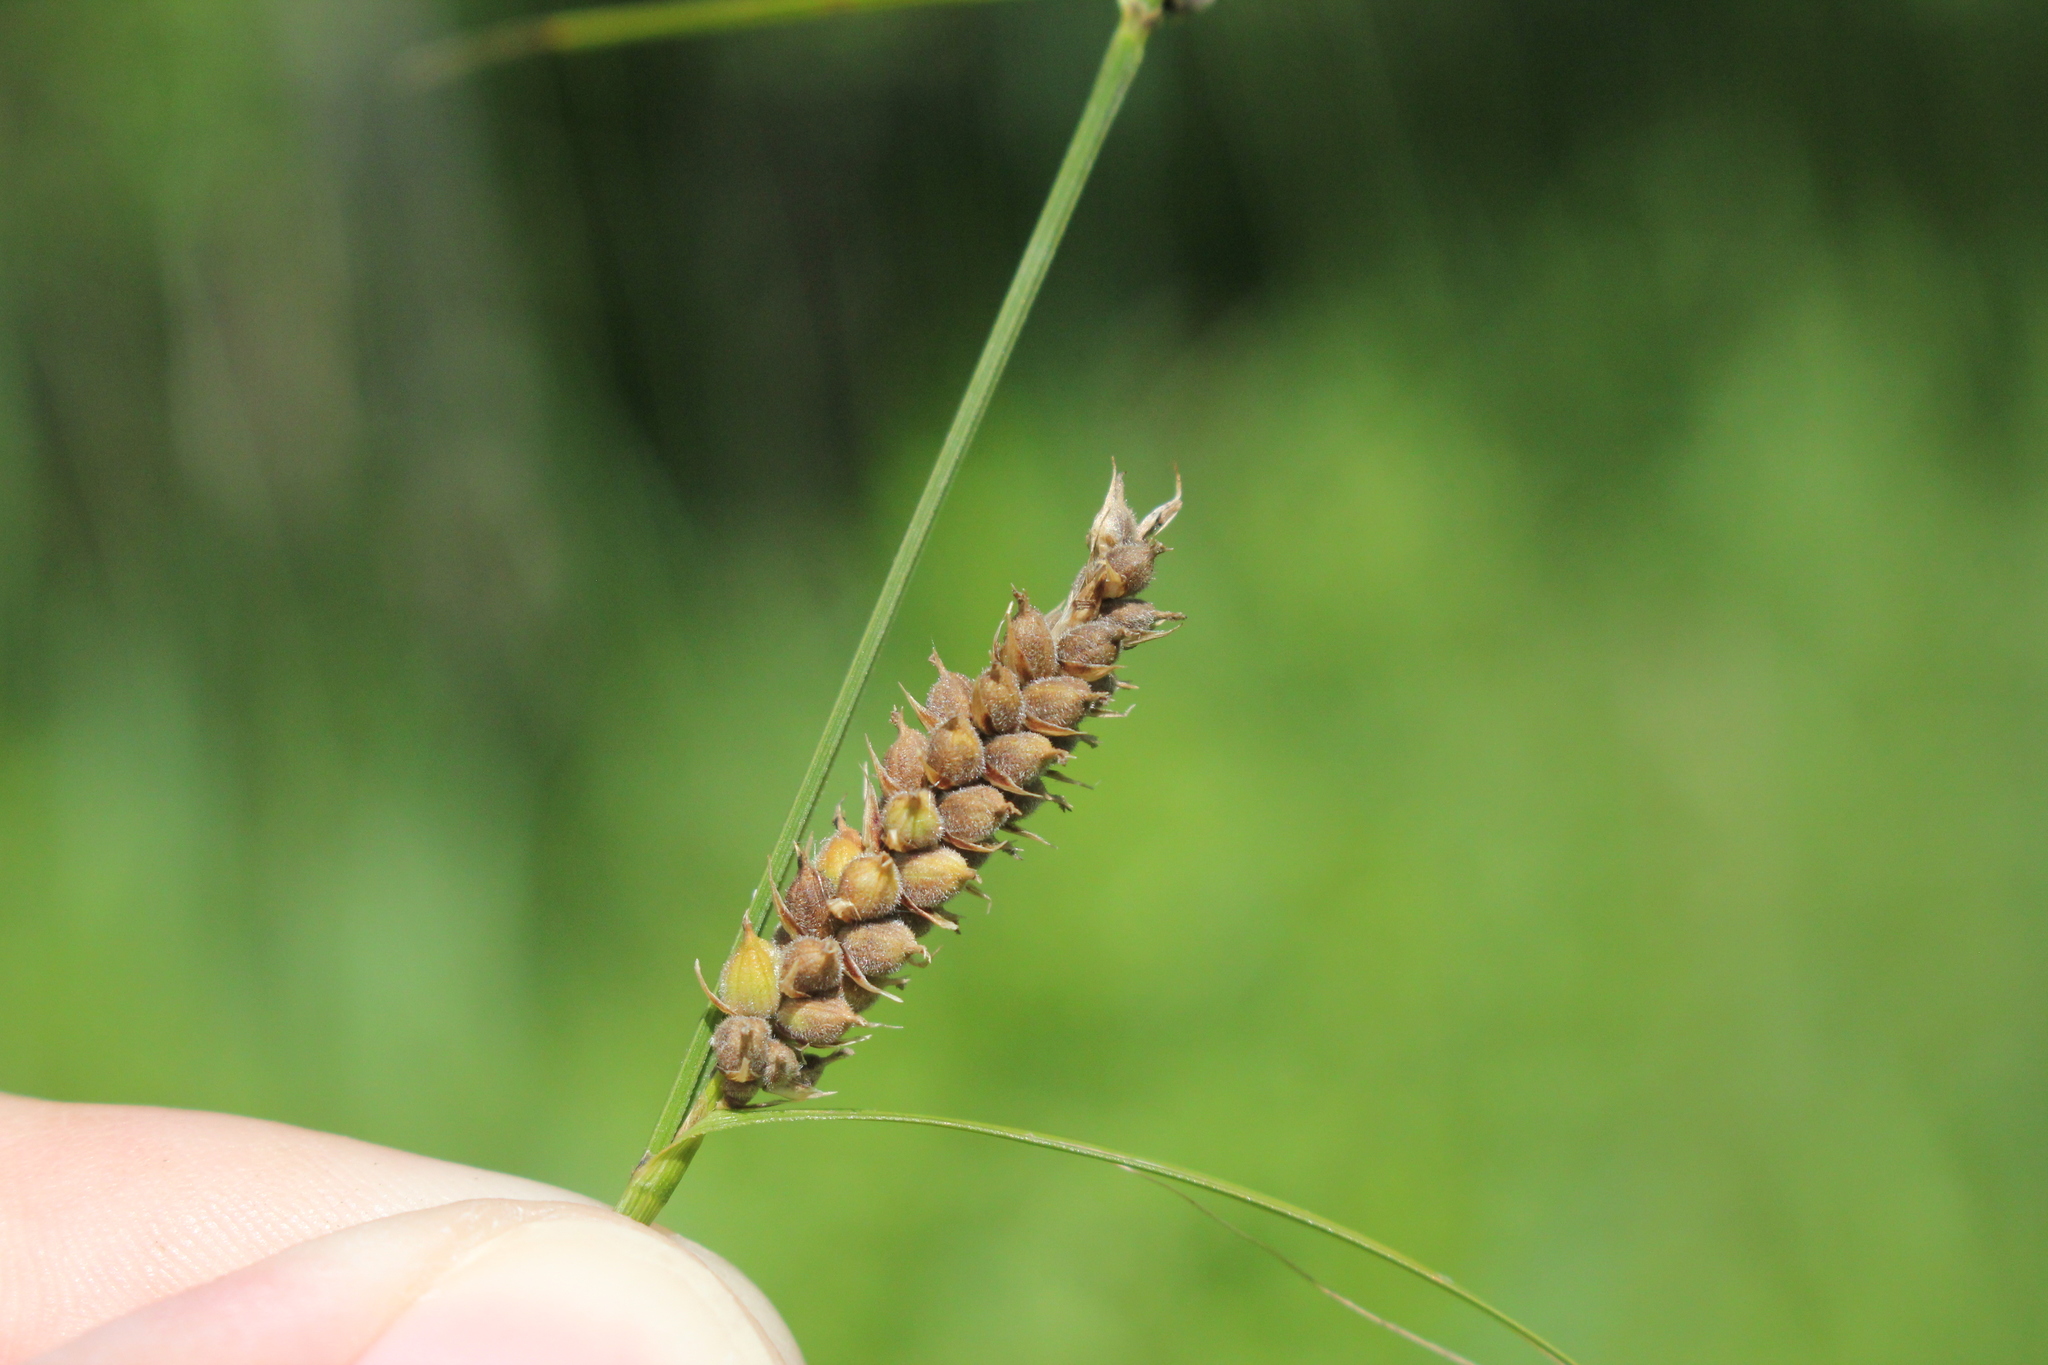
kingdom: Plantae
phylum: Tracheophyta
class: Liliopsida
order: Poales
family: Cyperaceae
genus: Carex
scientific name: Carex pellita
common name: Woolly sedge
